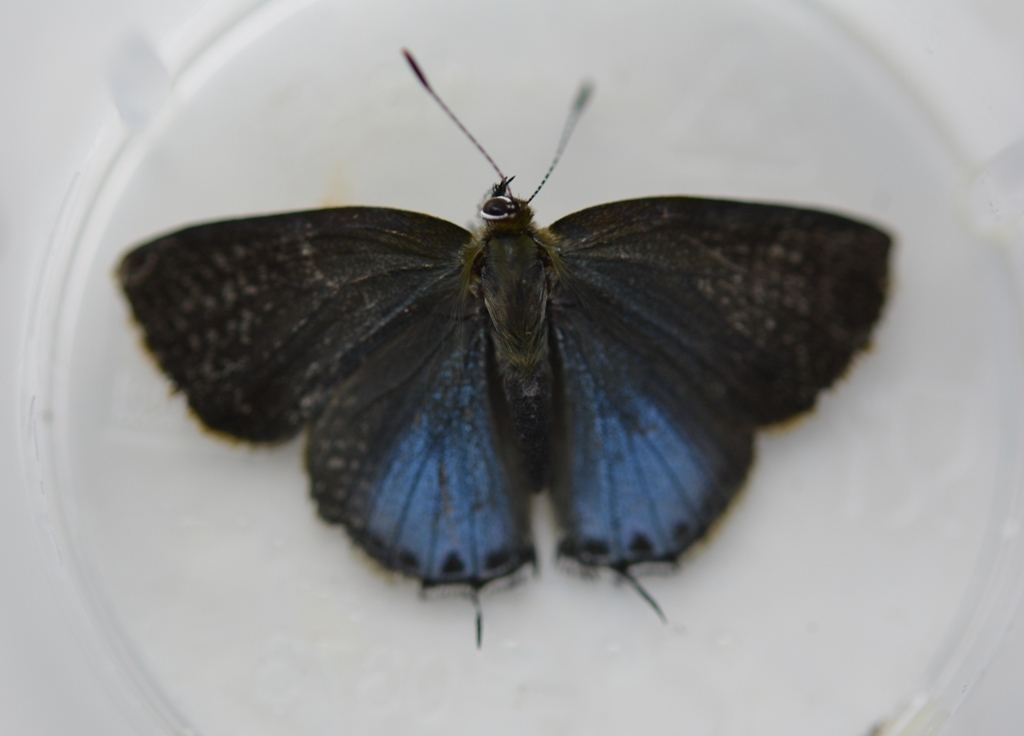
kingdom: Animalia
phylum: Arthropoda
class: Insecta
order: Lepidoptera
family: Lycaenidae
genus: Erora
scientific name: Erora
